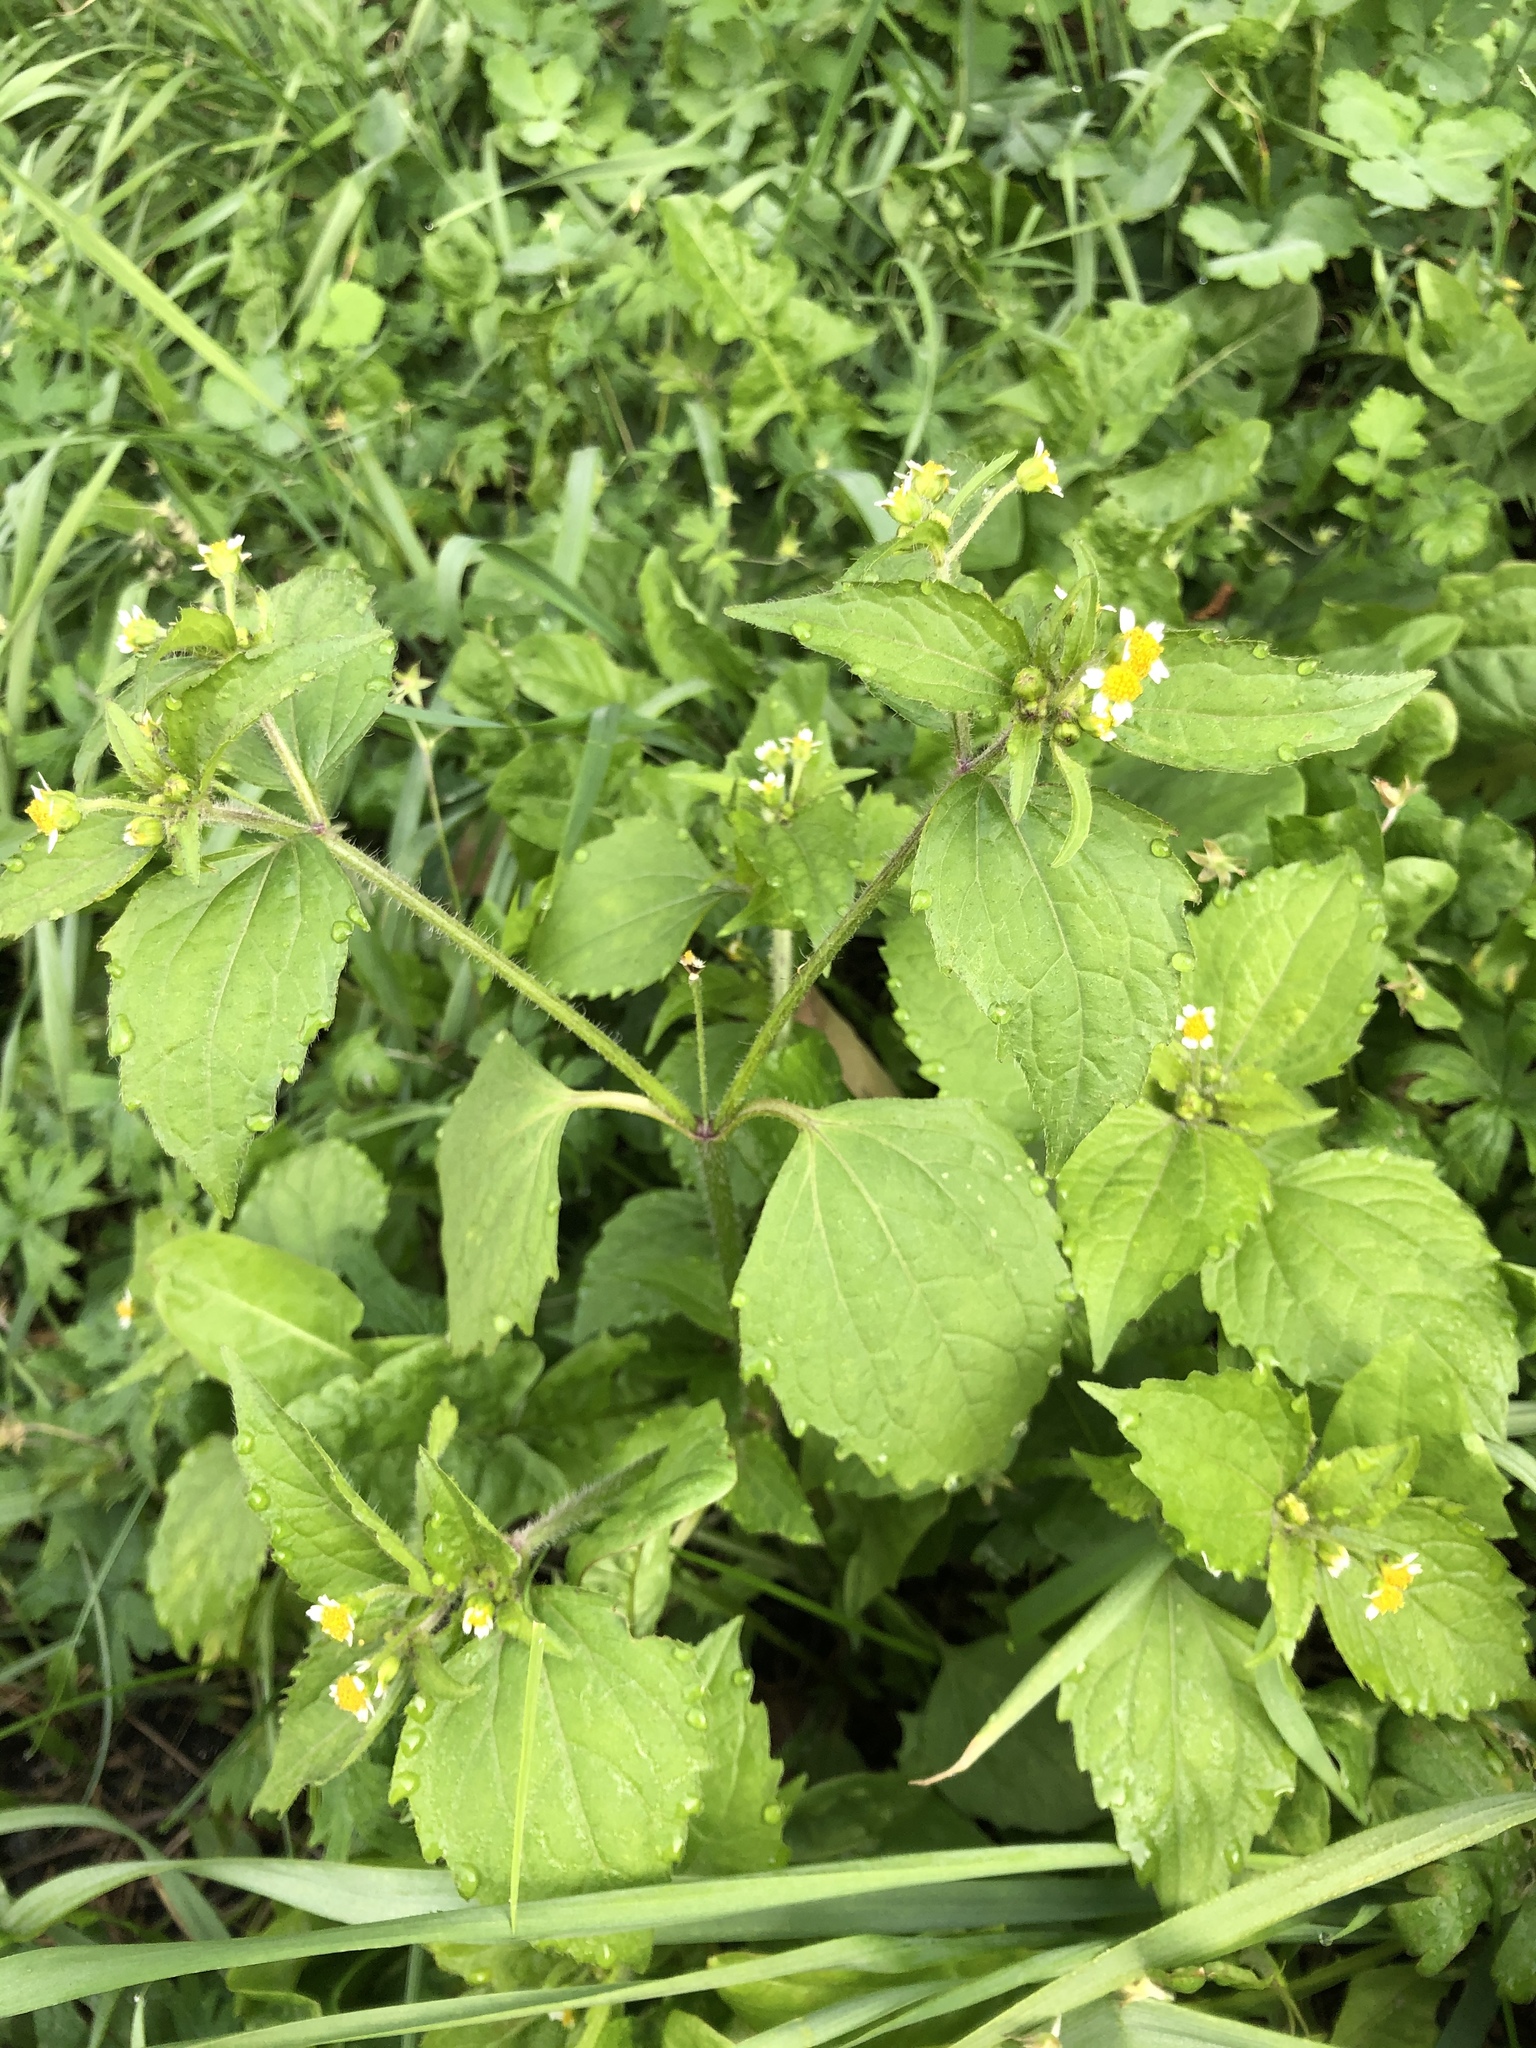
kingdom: Plantae
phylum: Tracheophyta
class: Magnoliopsida
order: Asterales
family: Asteraceae
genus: Galinsoga
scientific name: Galinsoga quadriradiata
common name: Shaggy soldier
